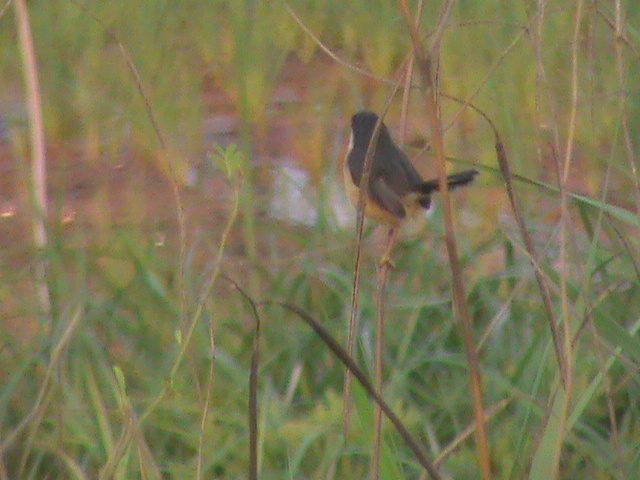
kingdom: Animalia
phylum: Chordata
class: Aves
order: Passeriformes
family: Cisticolidae
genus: Prinia
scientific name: Prinia socialis
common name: Ashy prinia
